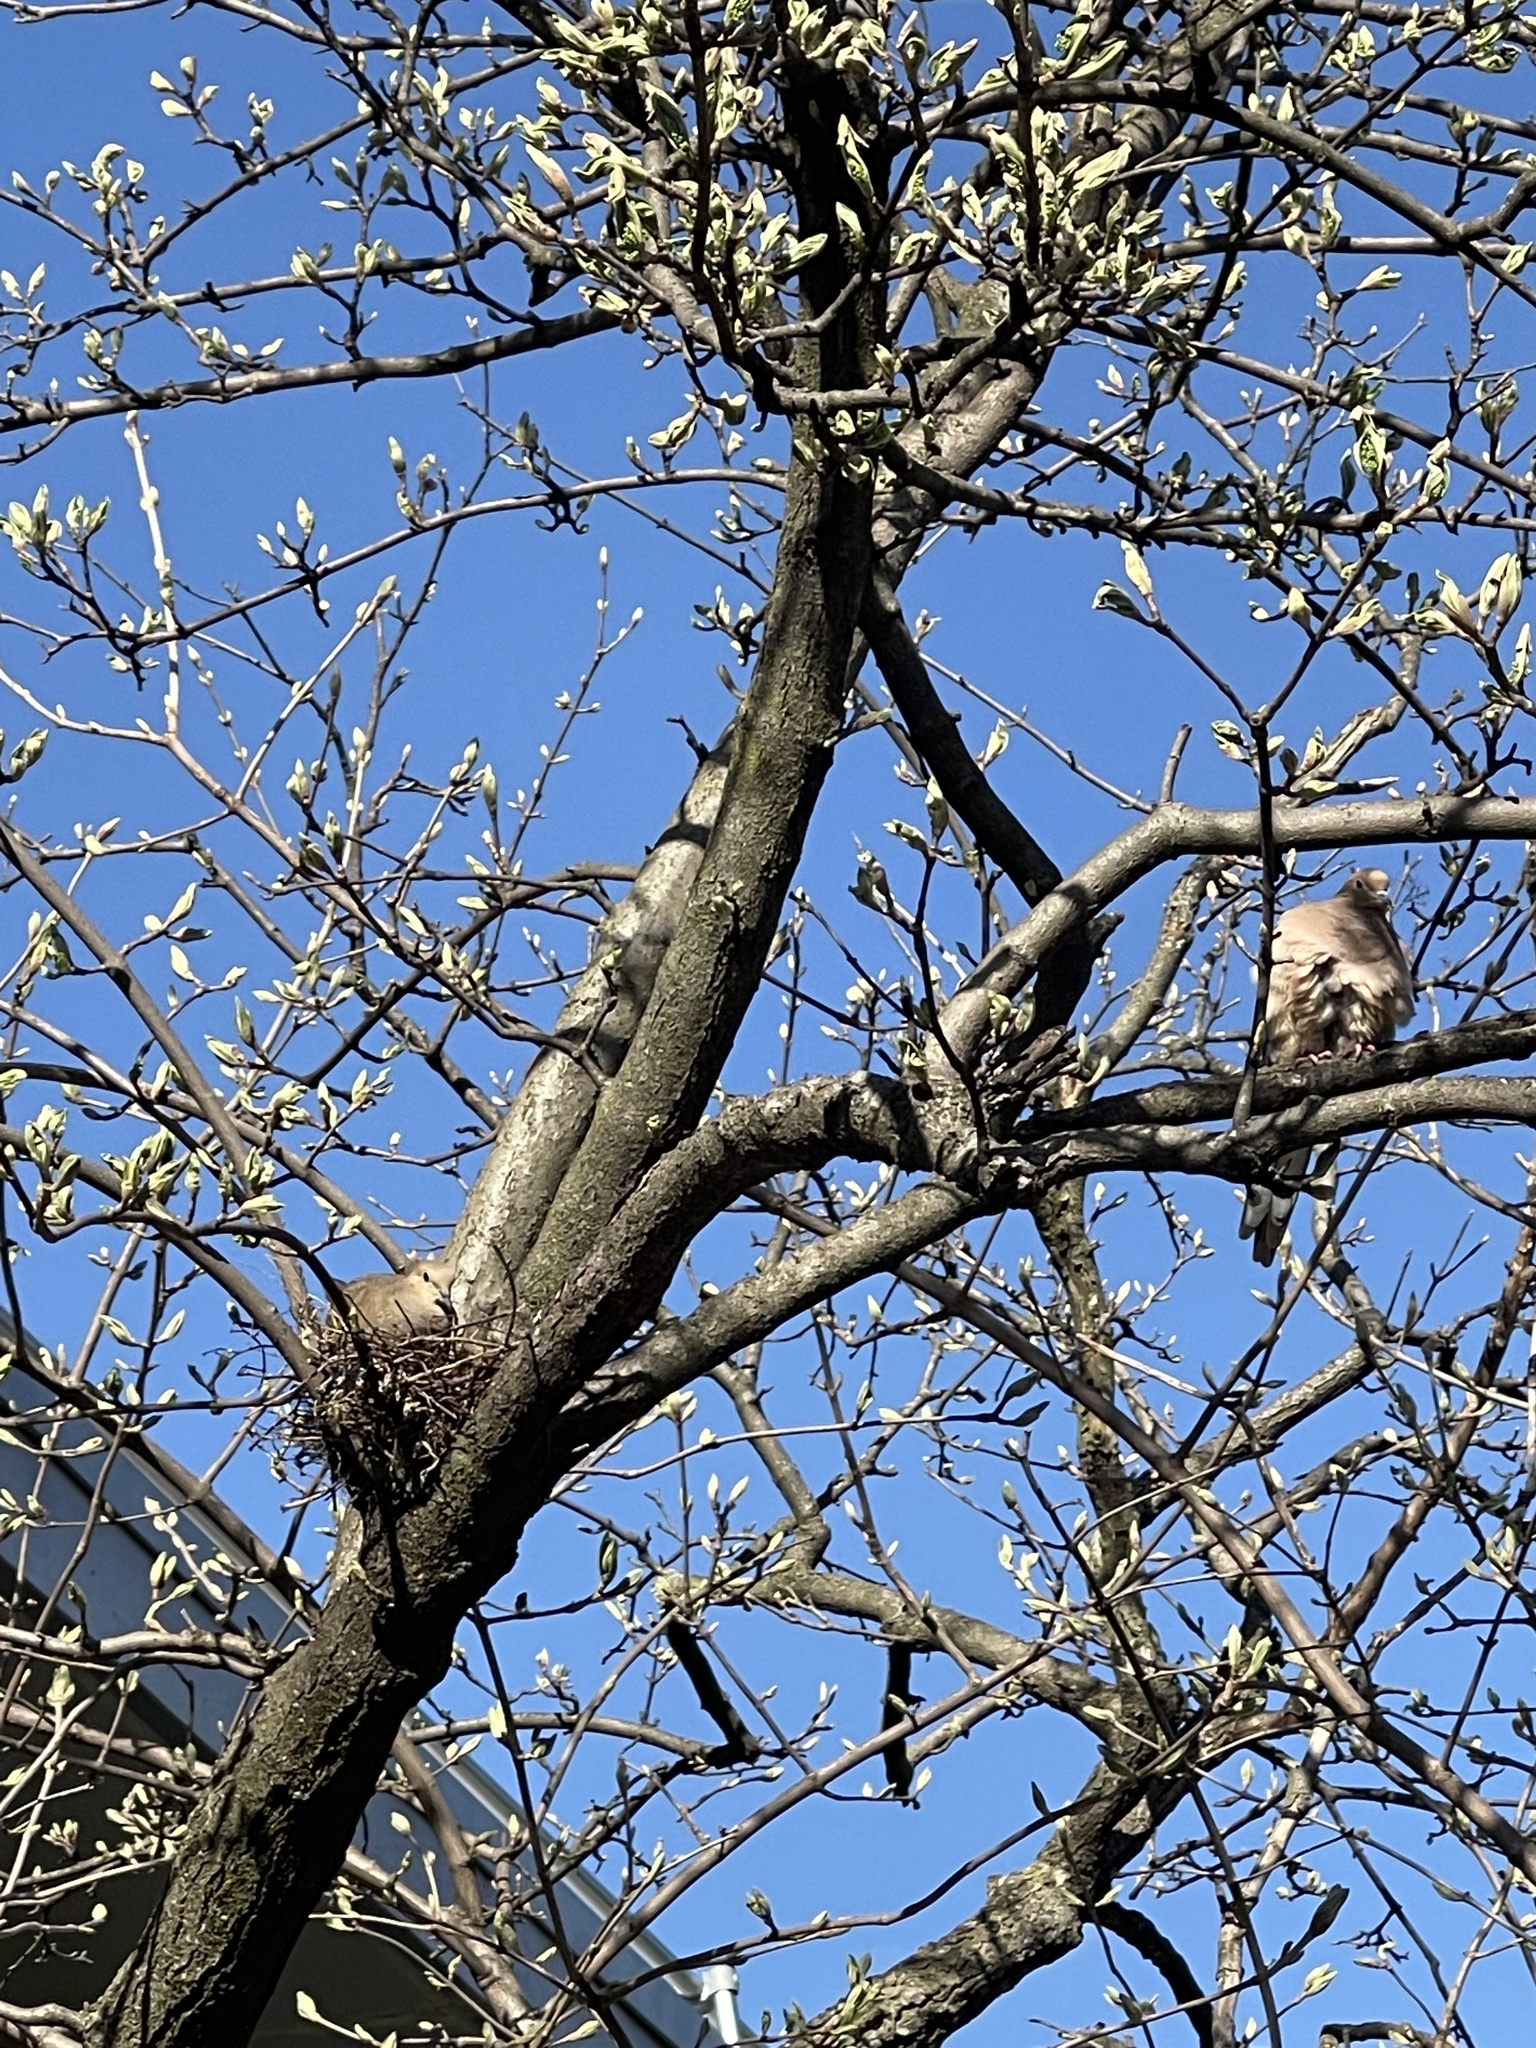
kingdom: Animalia
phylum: Chordata
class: Aves
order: Columbiformes
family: Columbidae
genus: Zenaida
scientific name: Zenaida macroura
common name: Mourning dove
